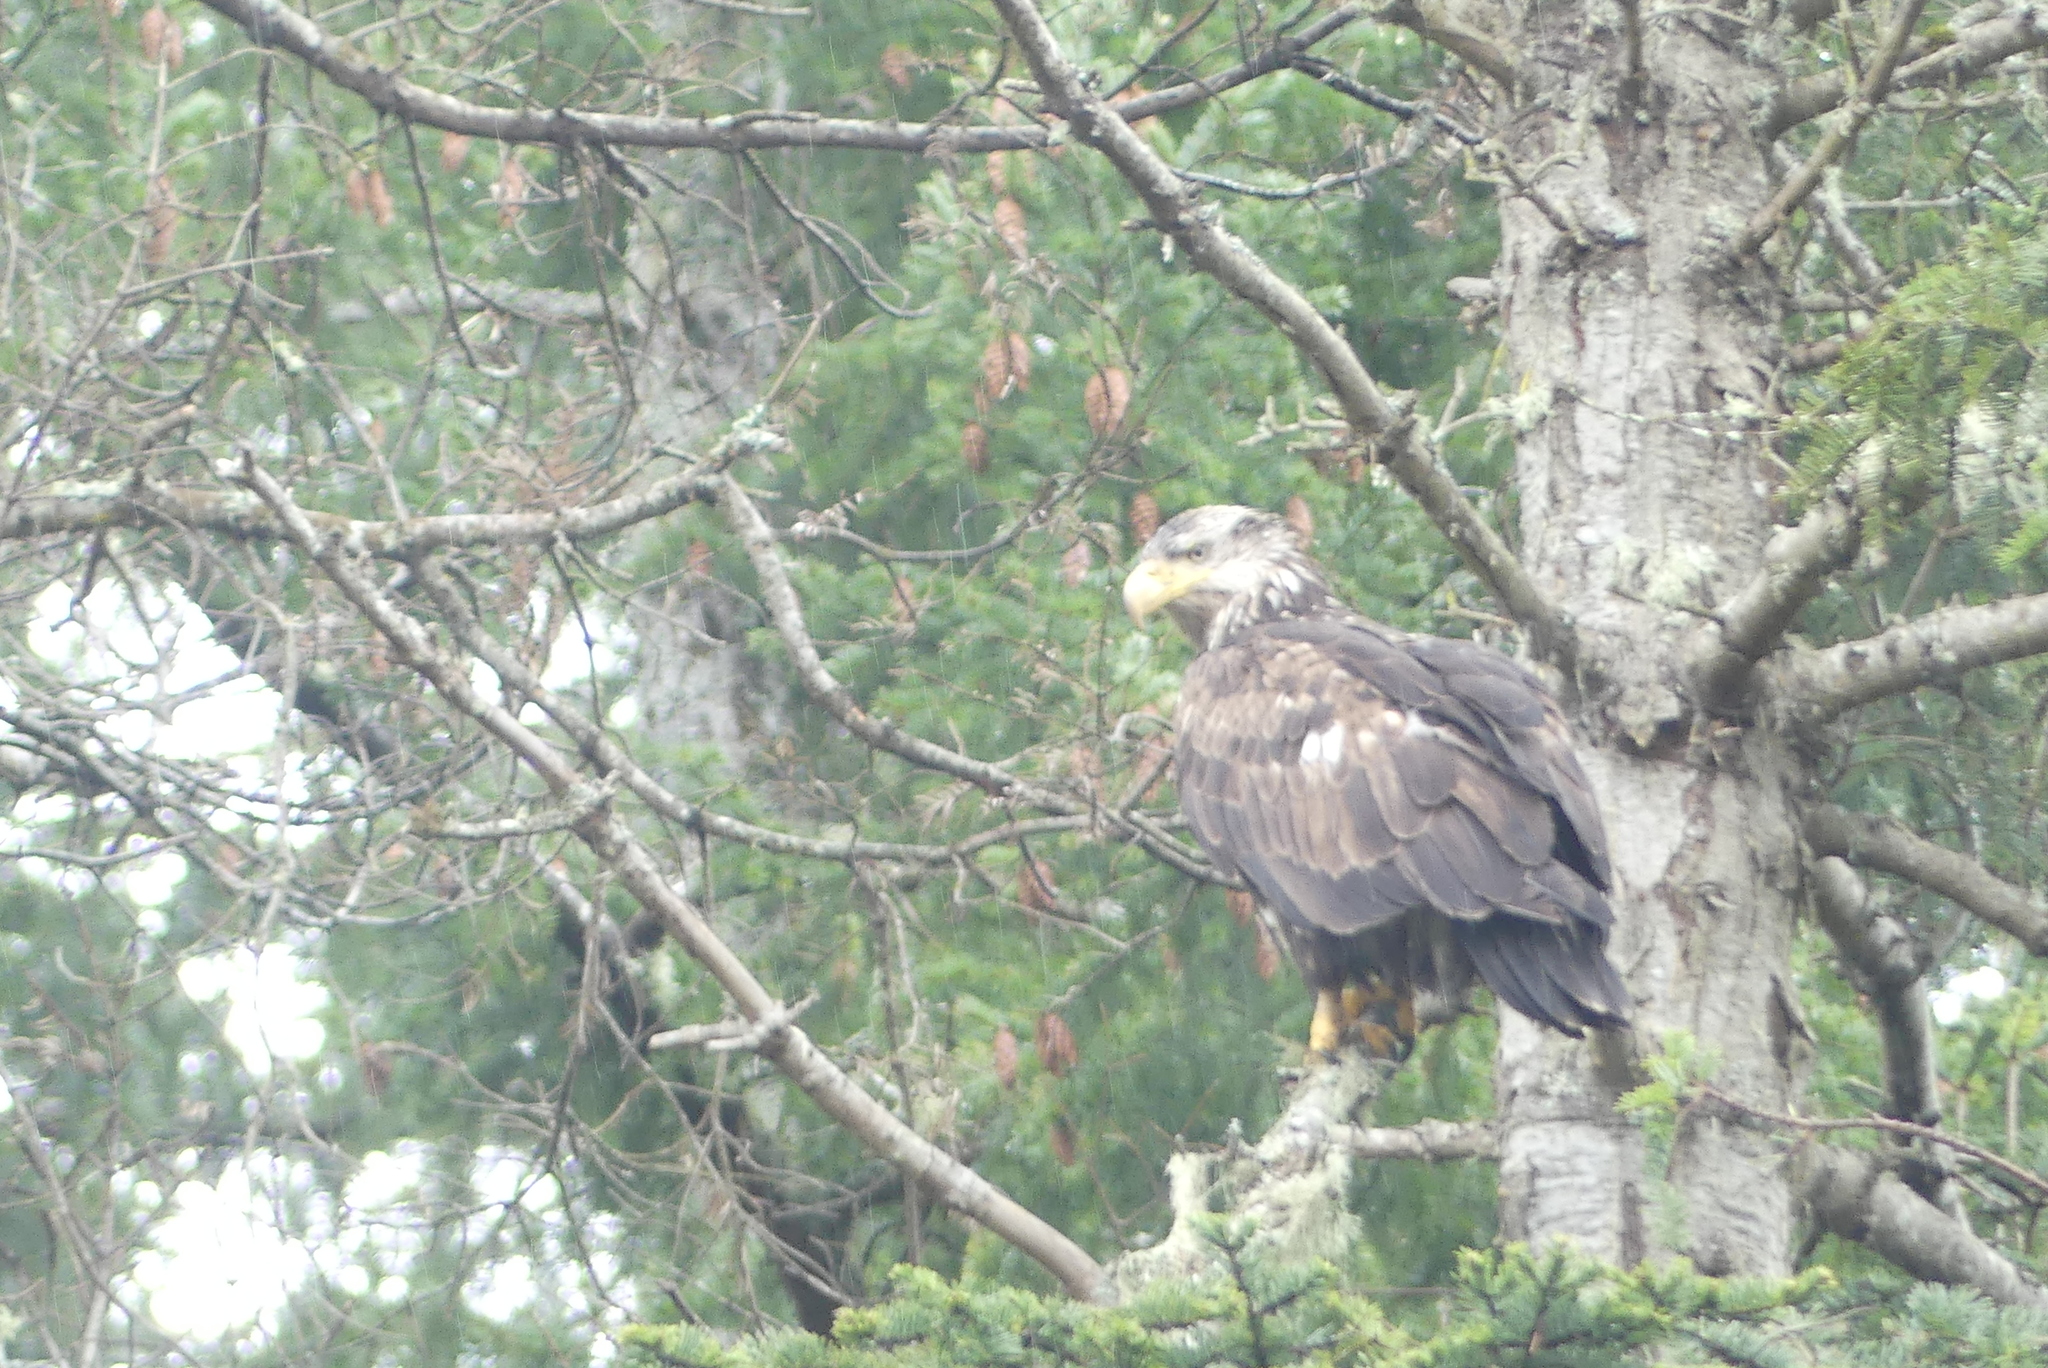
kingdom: Animalia
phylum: Chordata
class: Aves
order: Accipitriformes
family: Accipitridae
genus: Haliaeetus
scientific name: Haliaeetus leucocephalus
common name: Bald eagle
